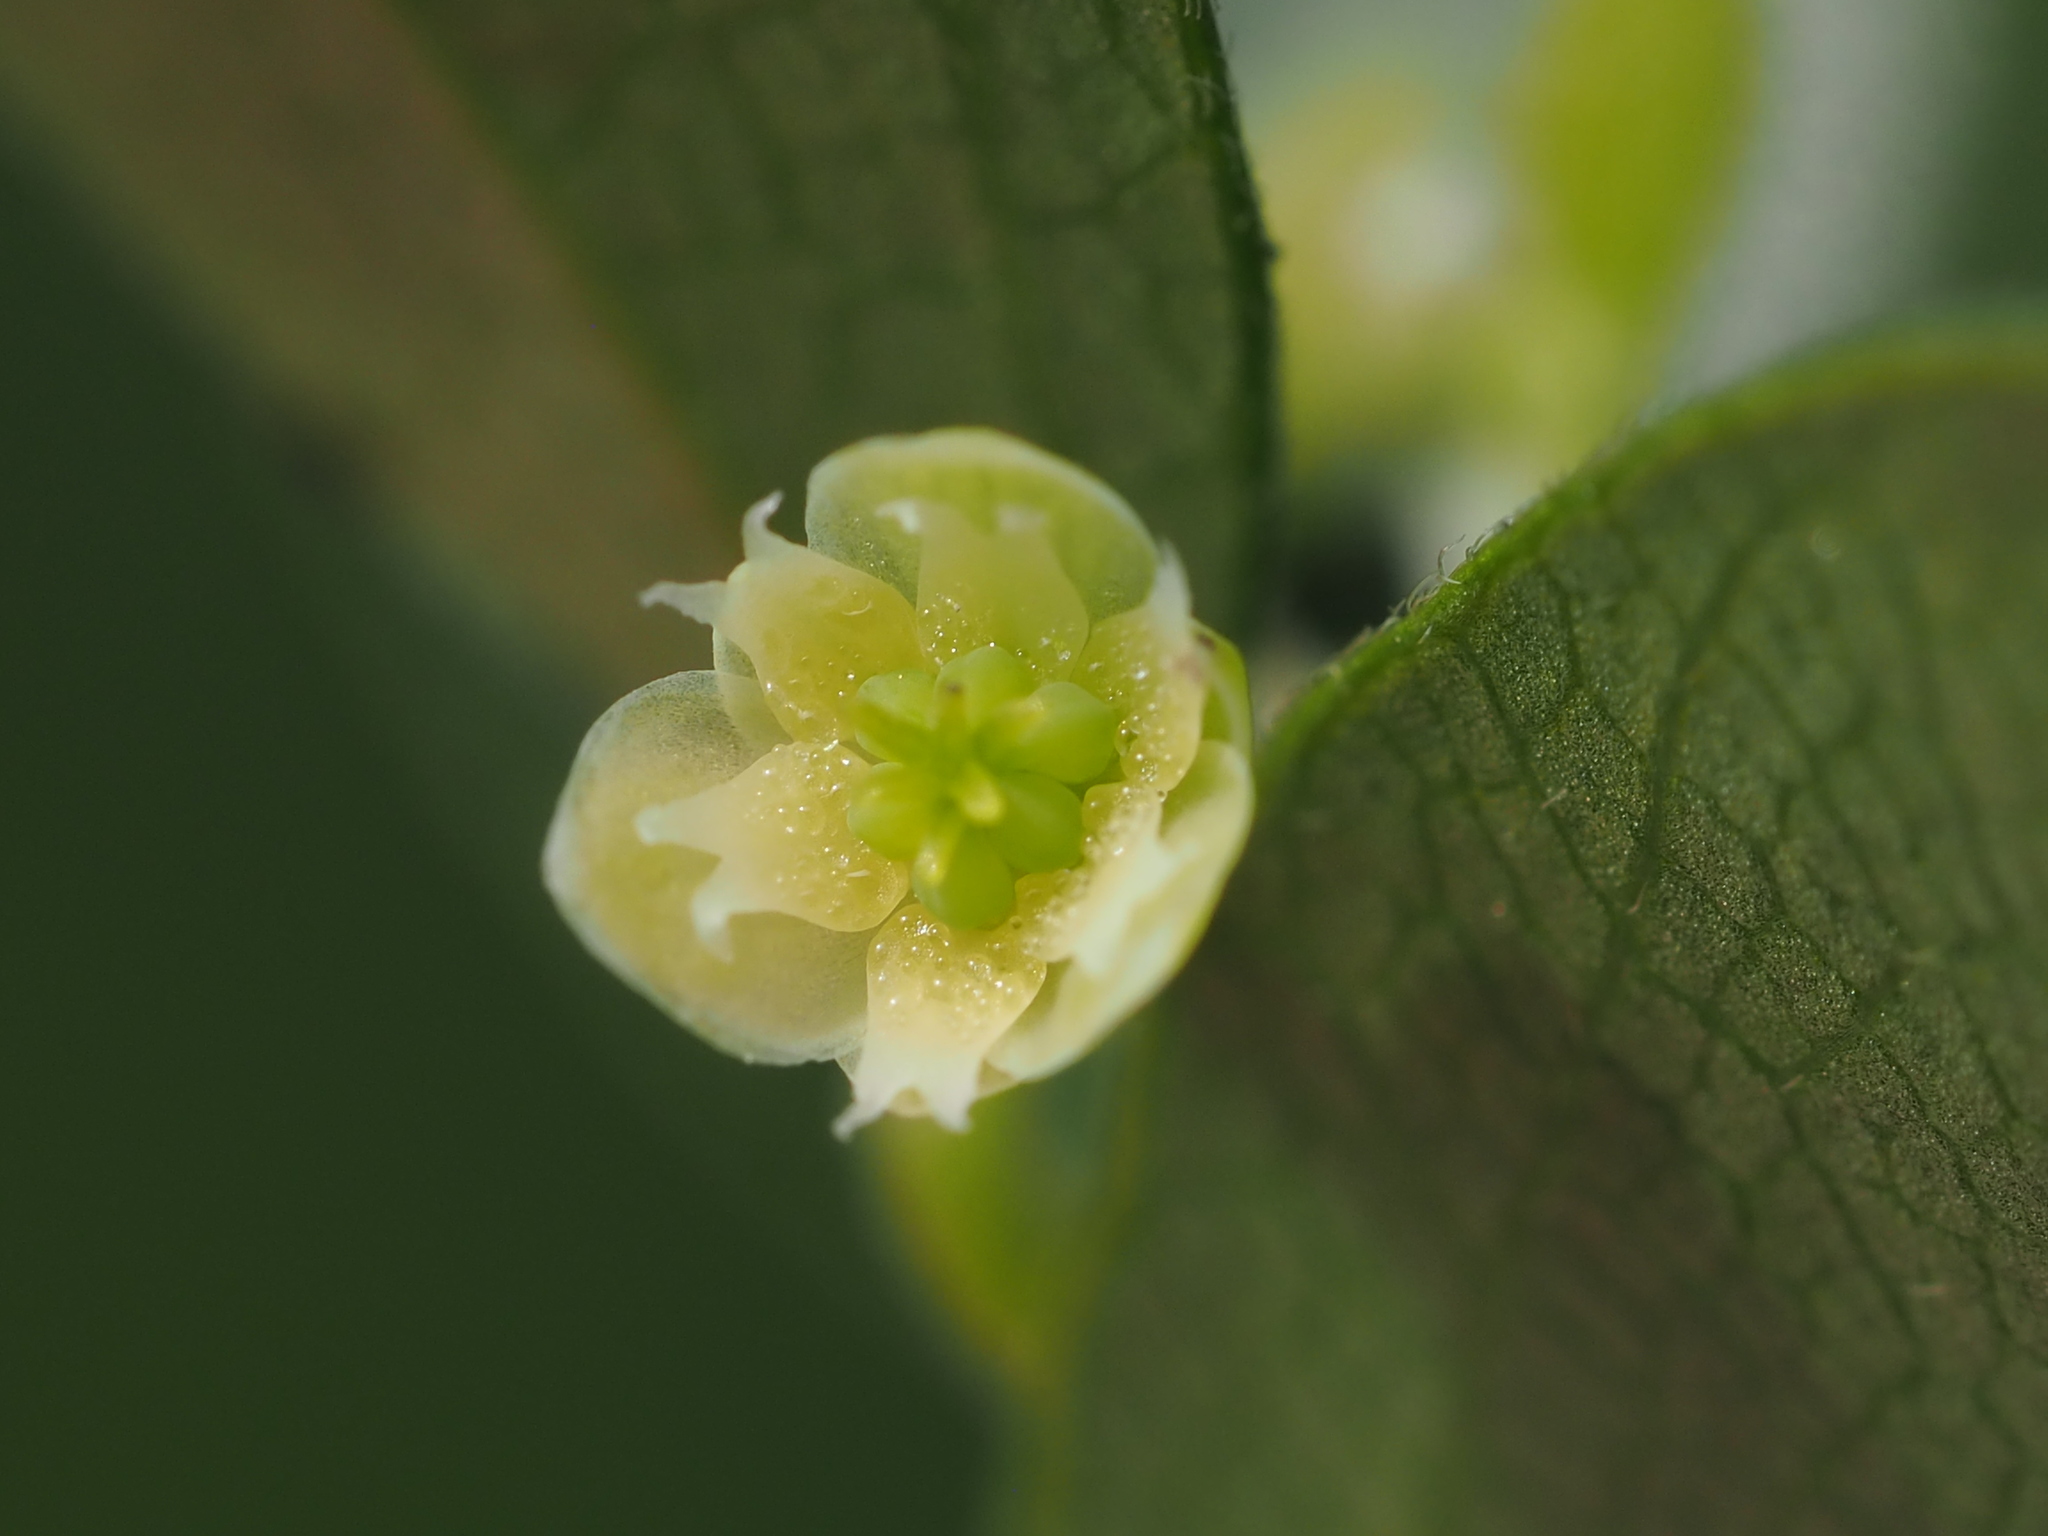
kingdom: Plantae
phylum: Tracheophyta
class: Magnoliopsida
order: Ranunculales
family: Menispermaceae
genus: Cocculus
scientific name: Cocculus orbiculatus
